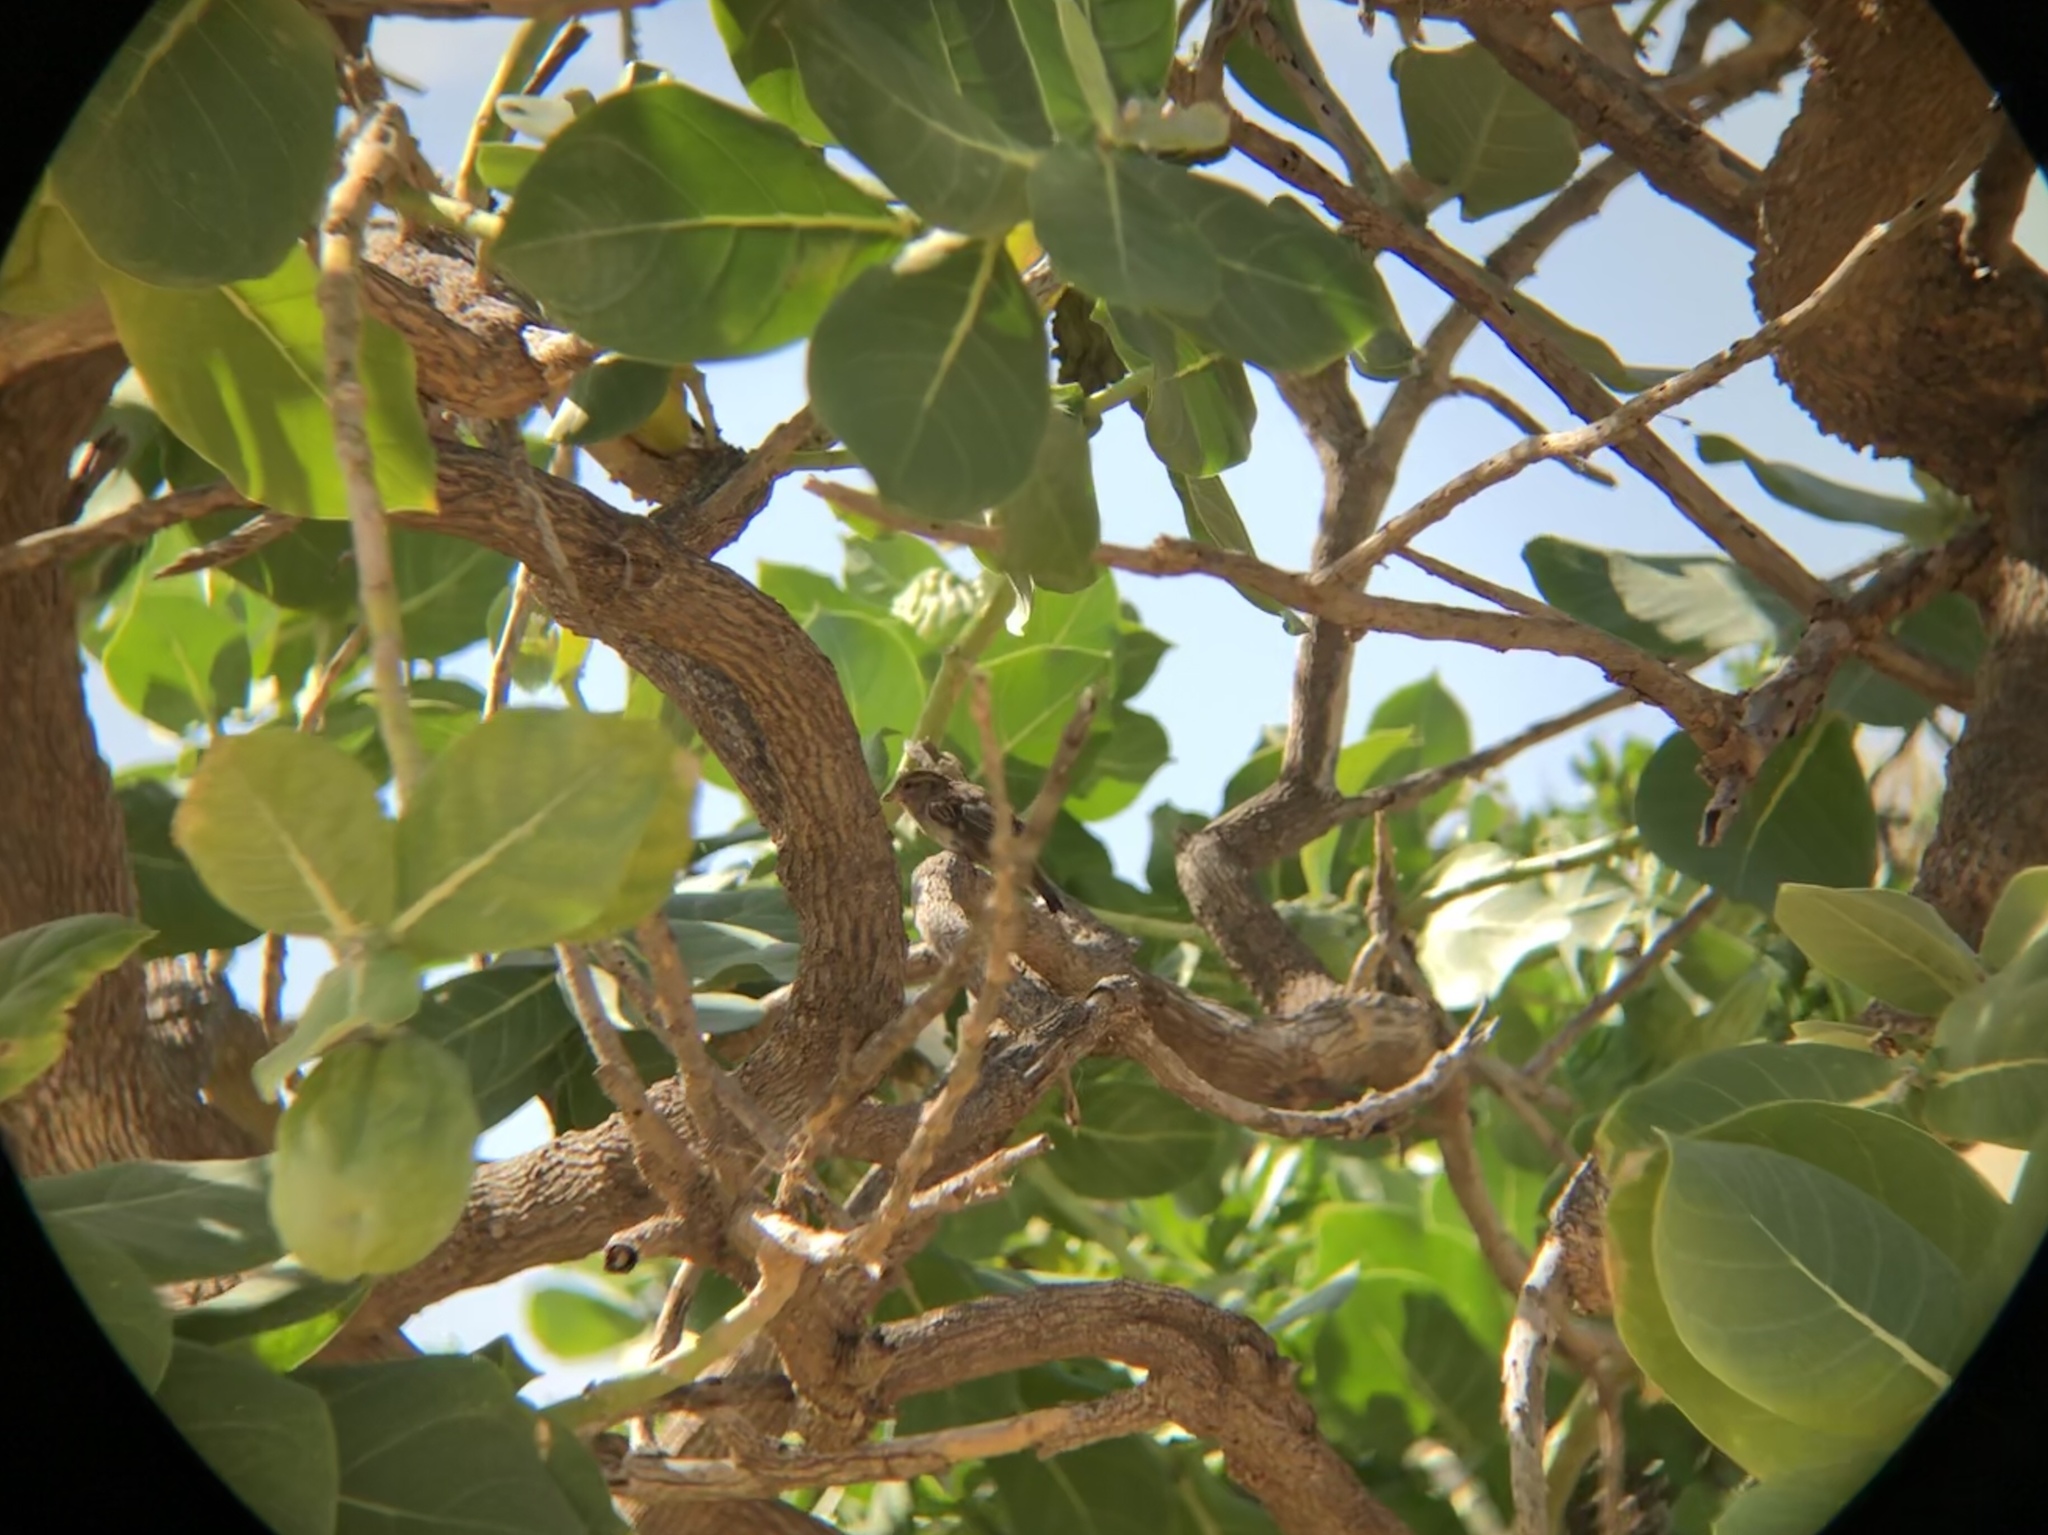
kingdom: Animalia
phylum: Chordata
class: Aves
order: Passeriformes
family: Passeridae
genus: Passer
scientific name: Passer domesticus
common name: House sparrow
